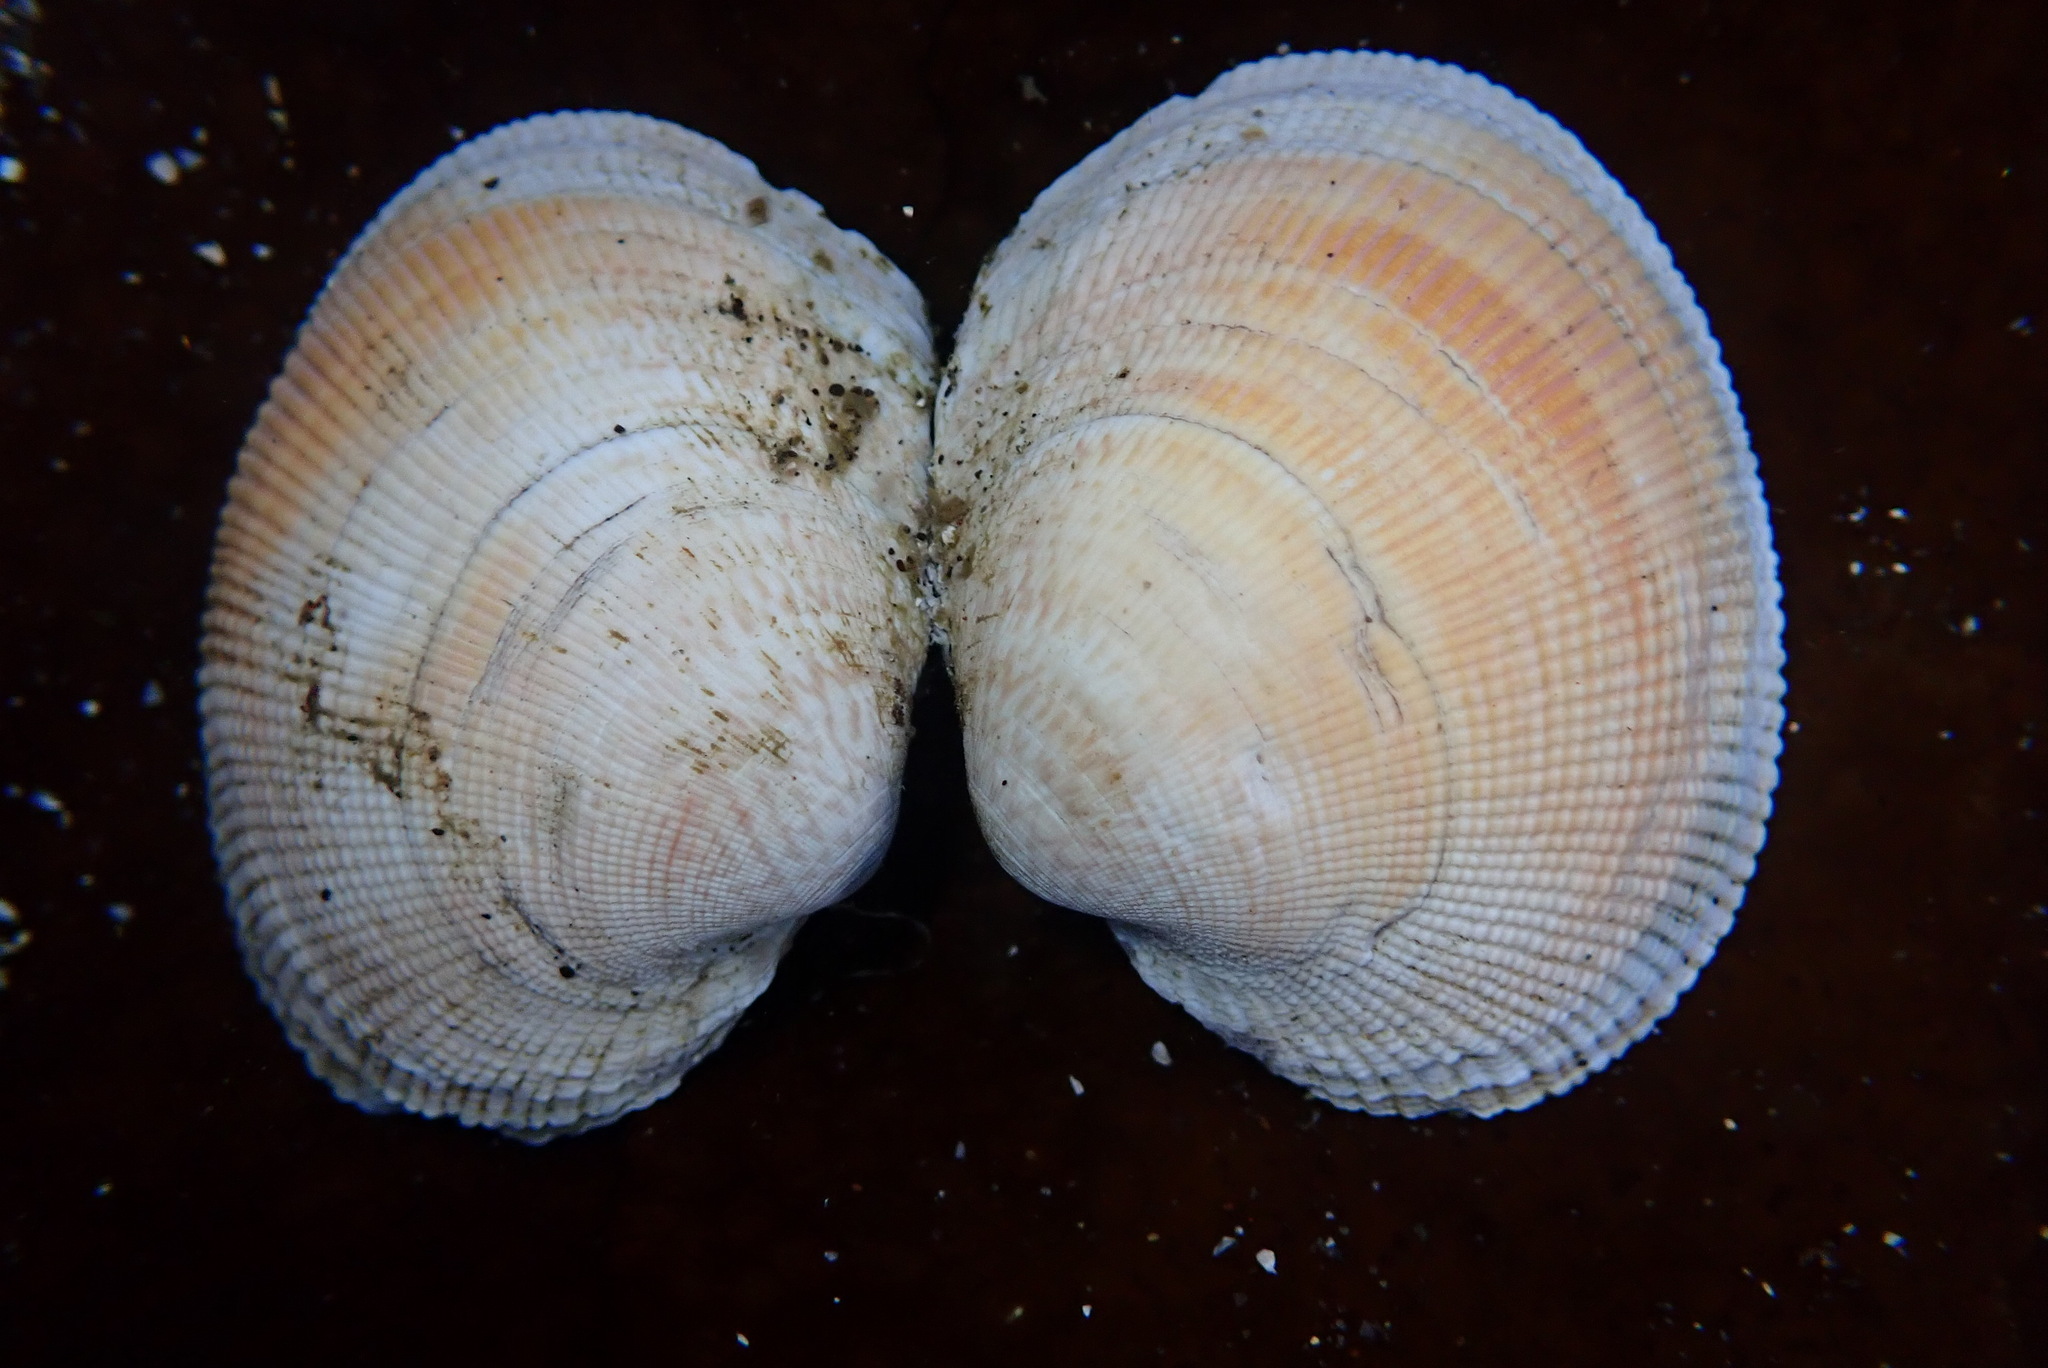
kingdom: Animalia
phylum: Mollusca
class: Bivalvia
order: Venerida
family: Veneridae
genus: Leukoma
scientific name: Leukoma staminea
